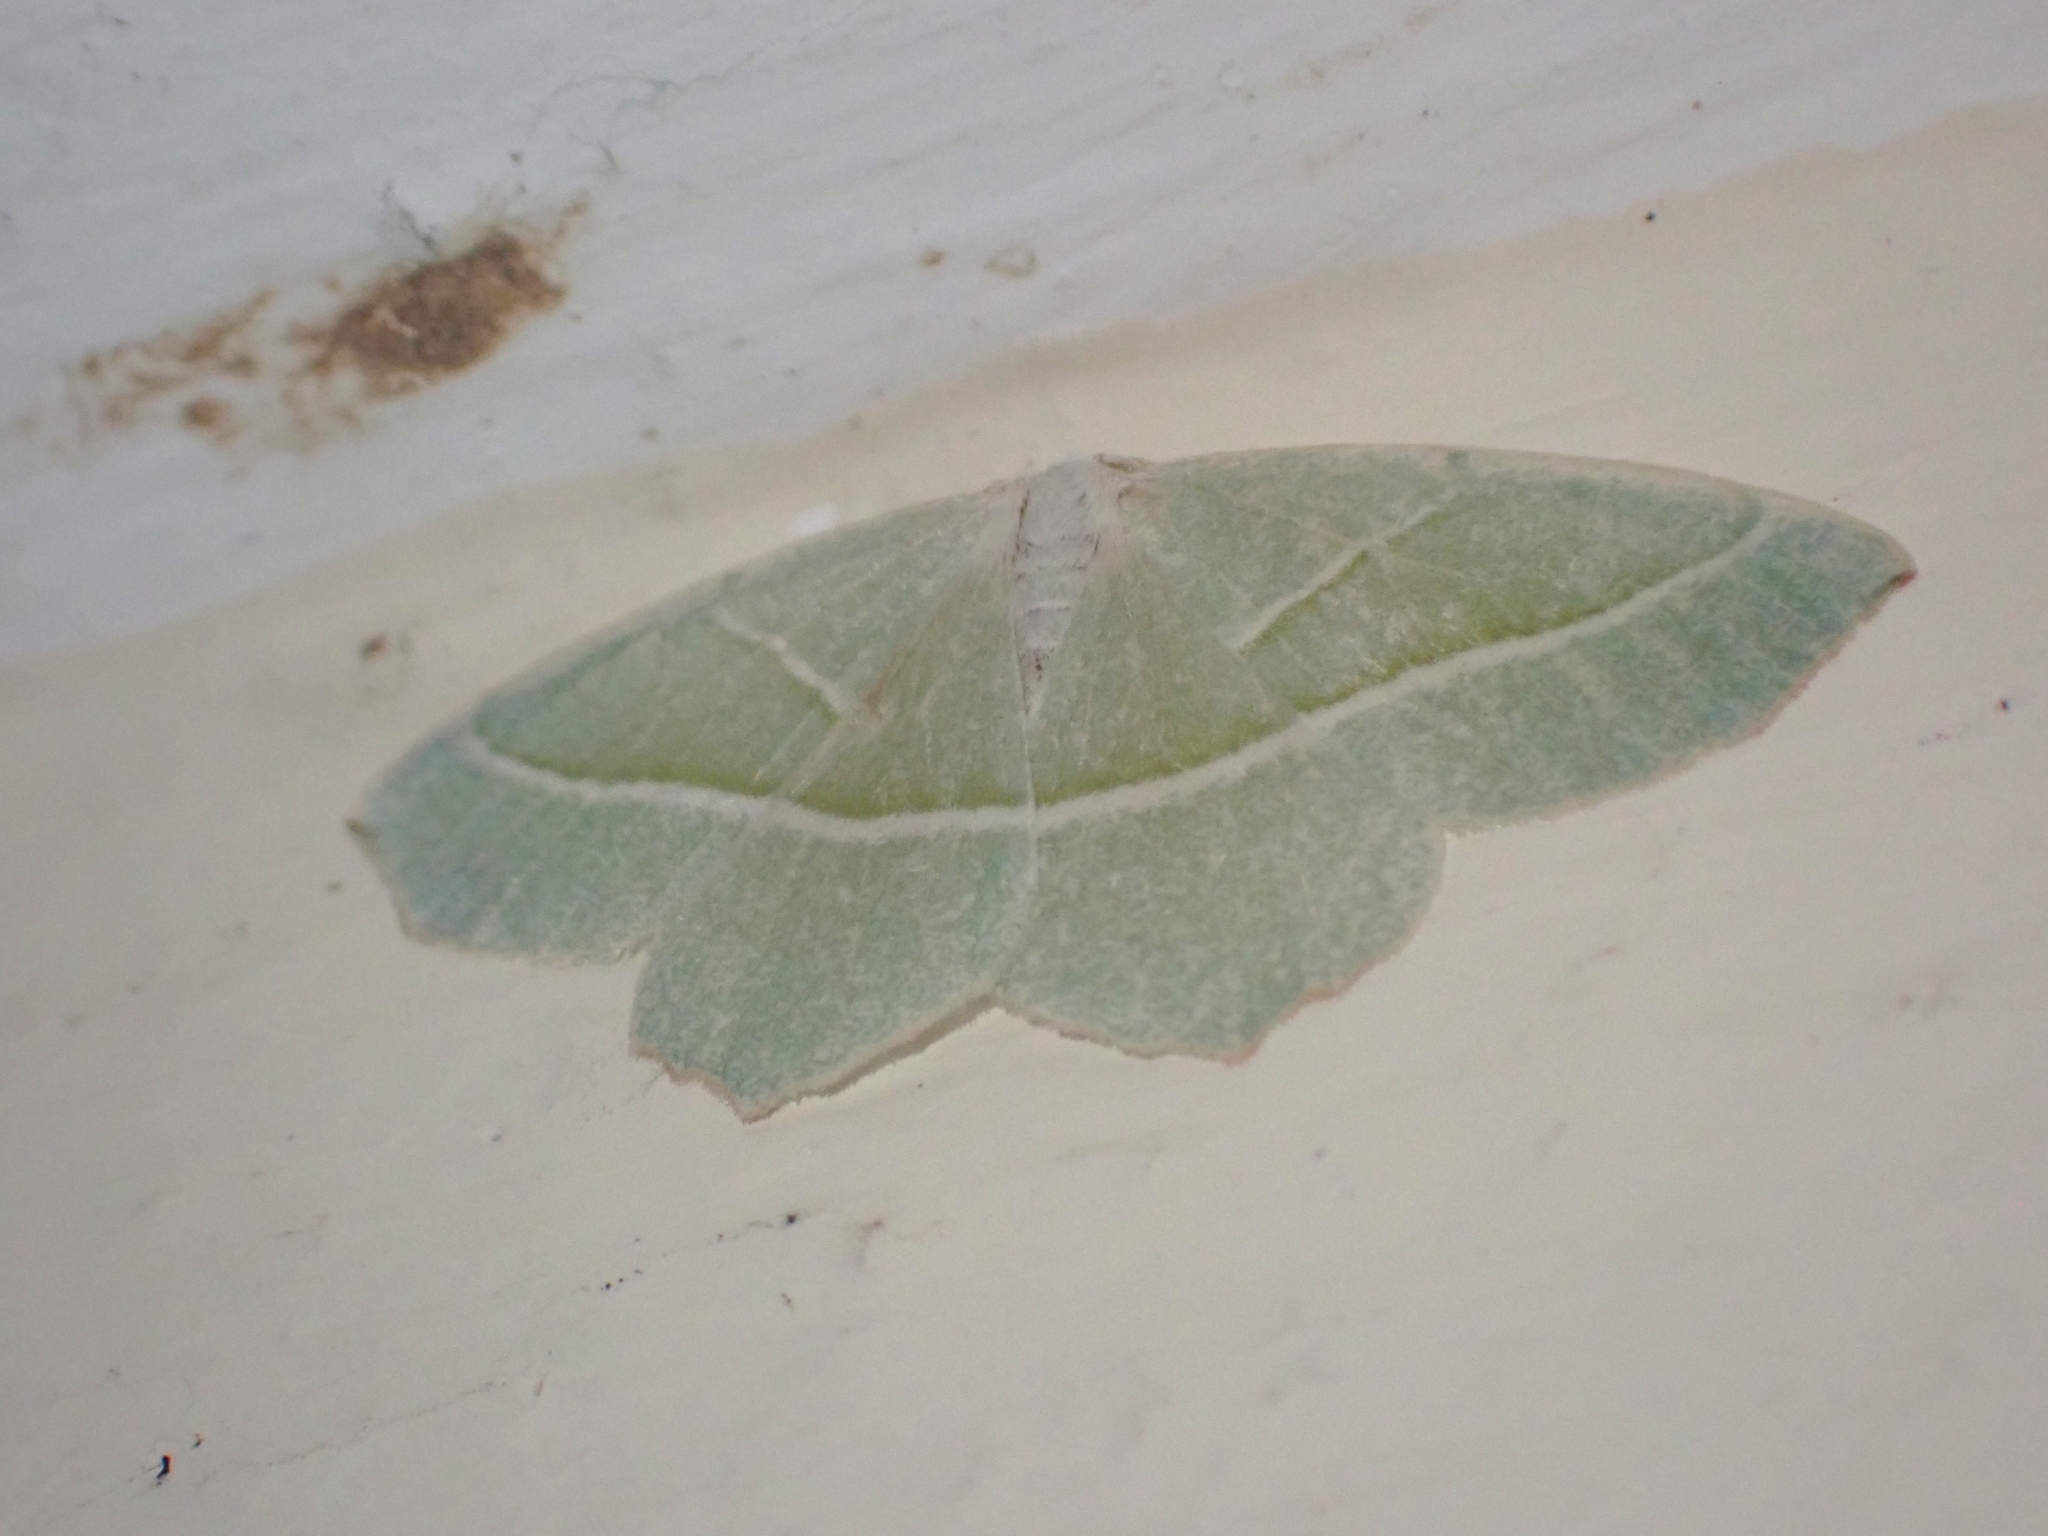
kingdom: Animalia
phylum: Arthropoda
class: Insecta
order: Lepidoptera
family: Geometridae
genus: Campaea
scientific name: Campaea margaritaria
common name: Light emerald
